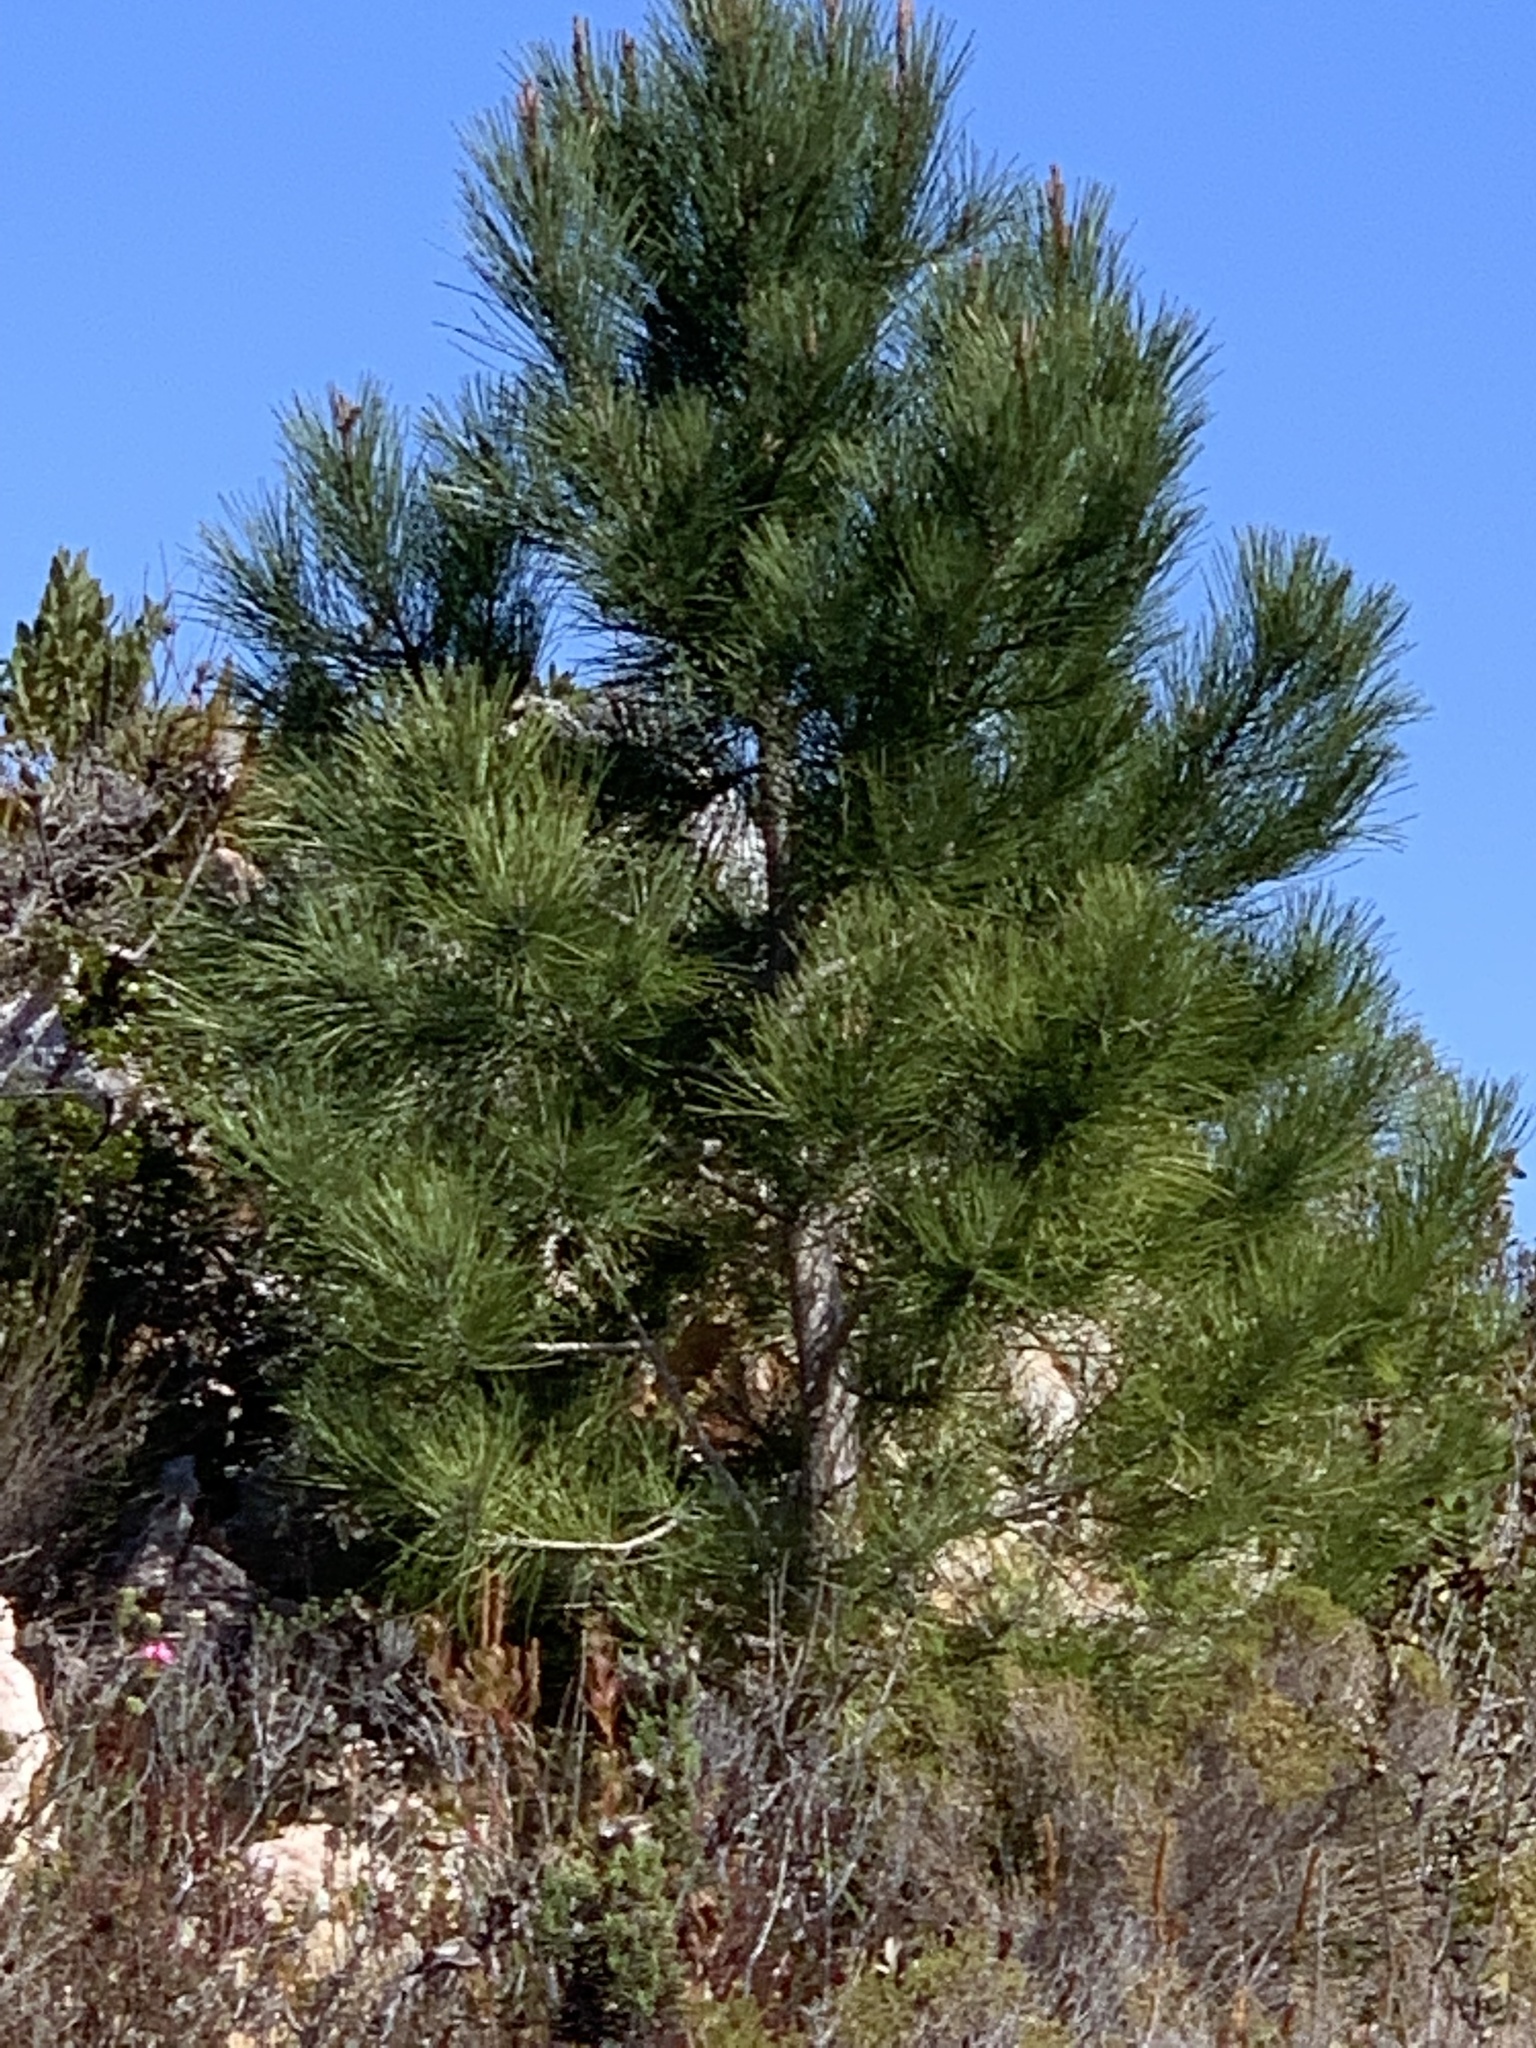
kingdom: Plantae
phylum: Tracheophyta
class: Pinopsida
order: Pinales
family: Pinaceae
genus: Pinus
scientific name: Pinus pinaster
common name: Maritime pine
